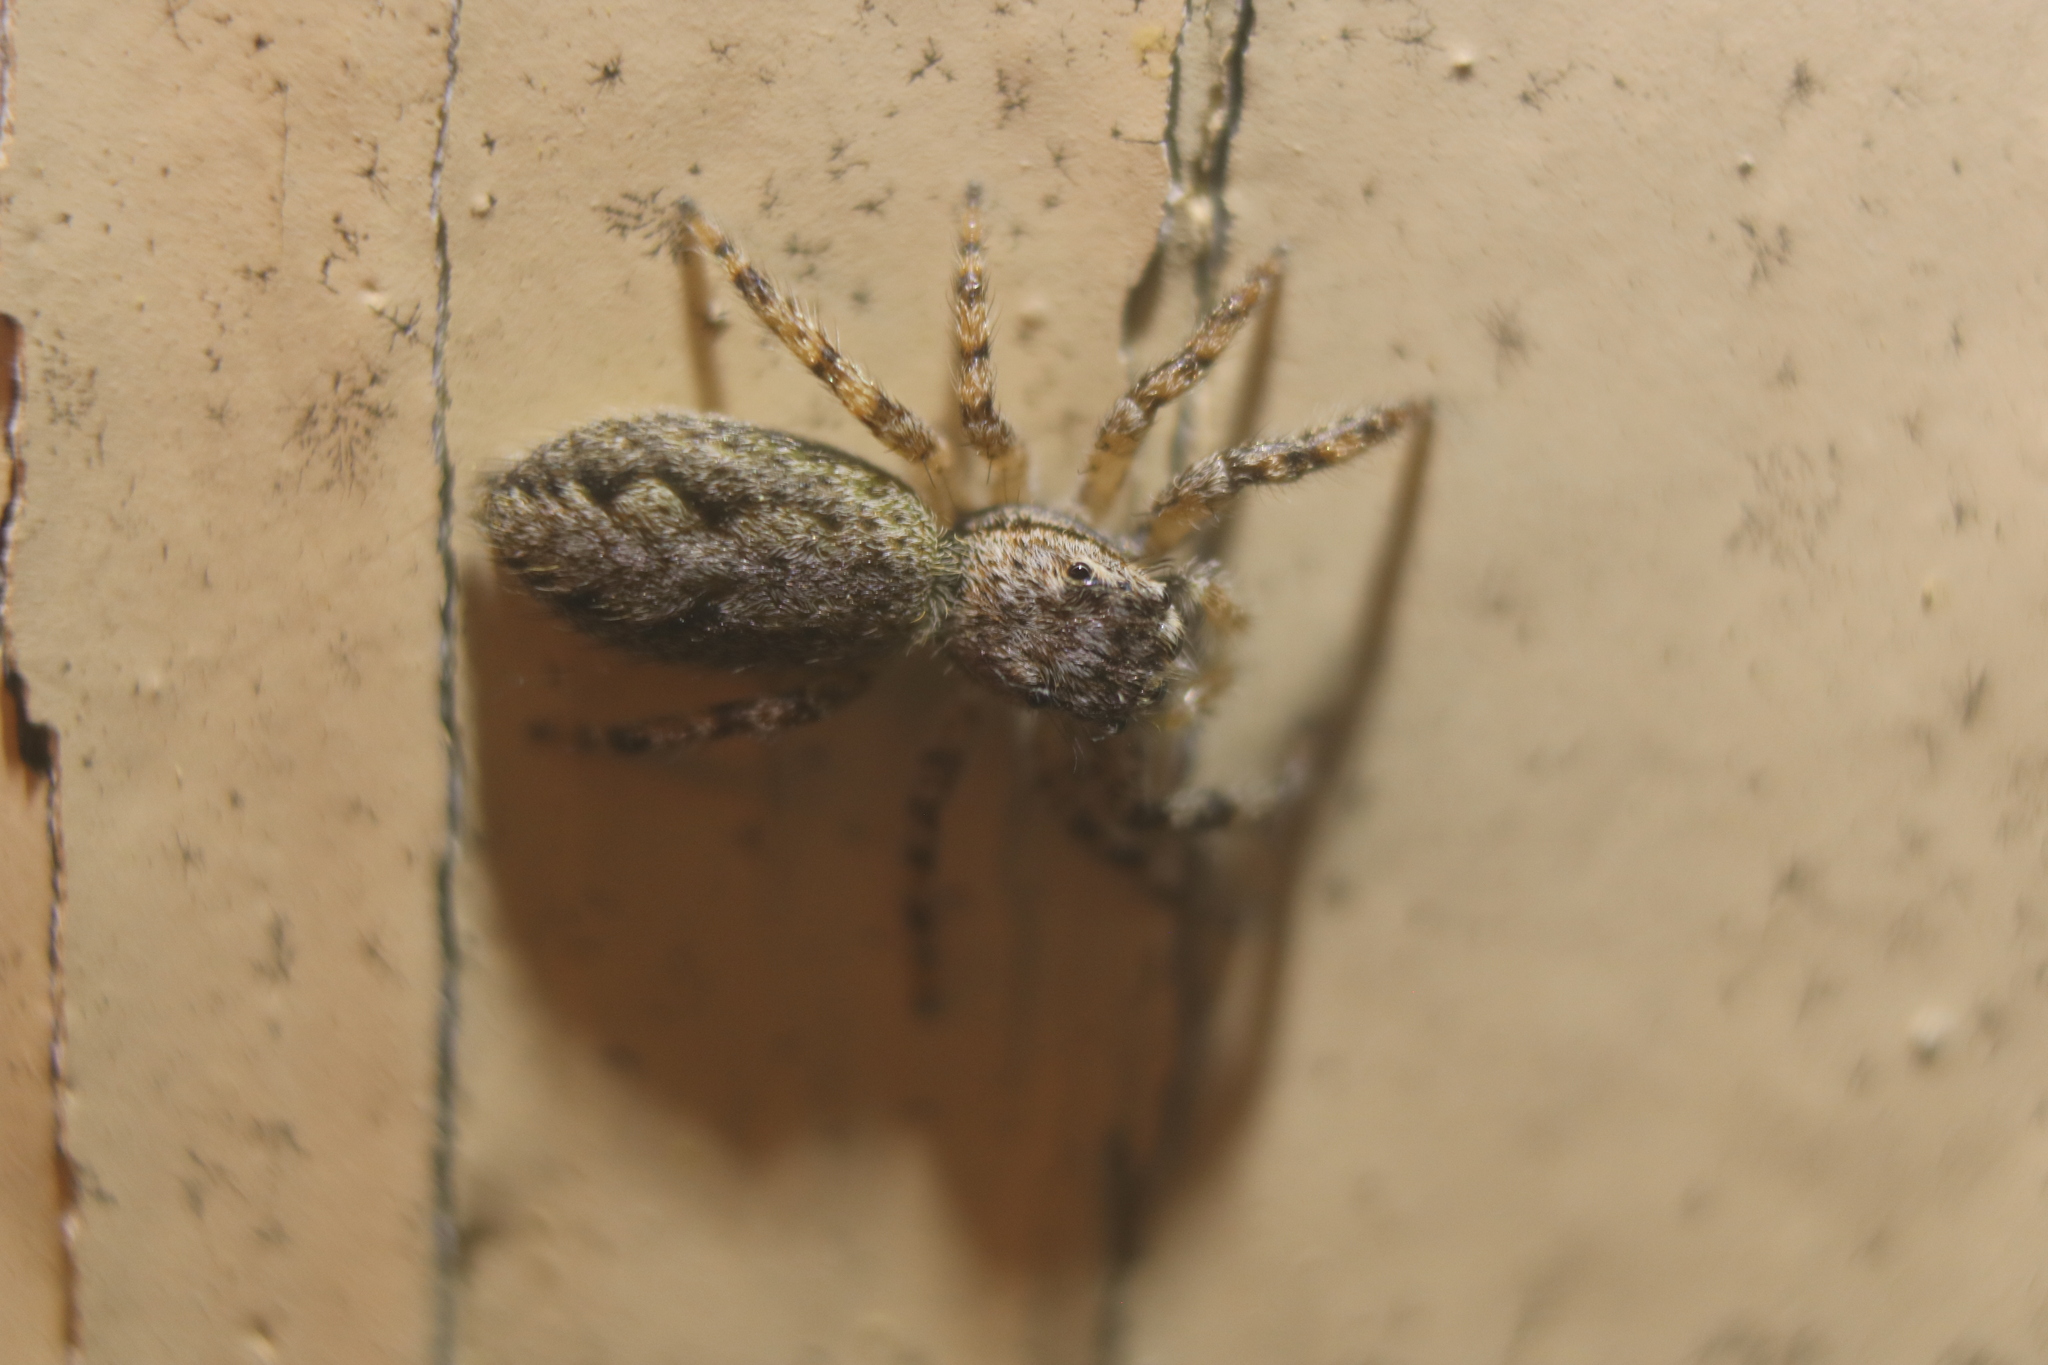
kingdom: Animalia
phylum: Arthropoda
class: Arachnida
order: Araneae
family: Salticidae
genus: Platycryptus
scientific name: Platycryptus undatus
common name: Tan jumping spider
